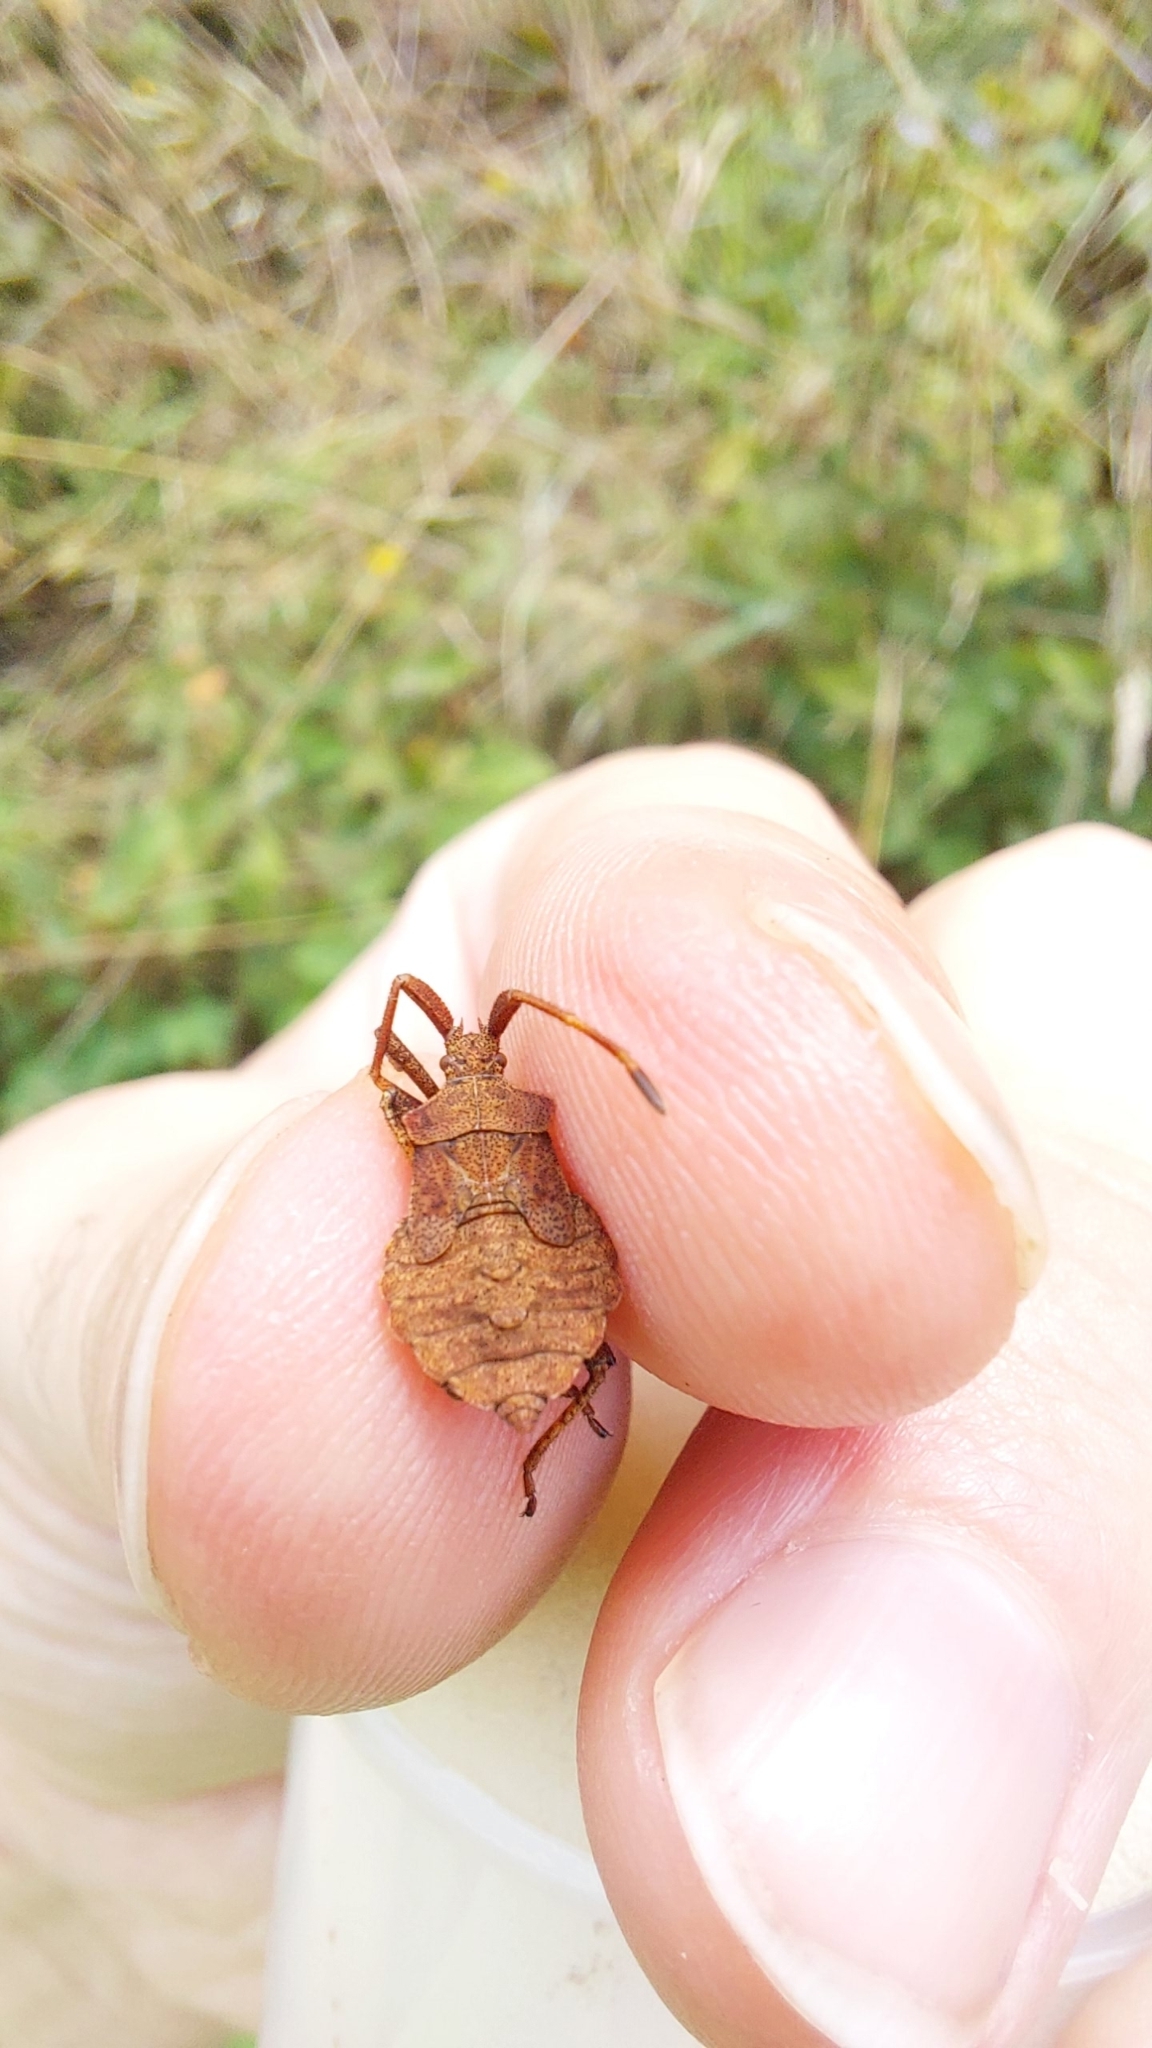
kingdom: Animalia
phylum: Arthropoda
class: Insecta
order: Hemiptera
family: Coreidae
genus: Coreus
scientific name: Coreus marginatus
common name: Dock bug
